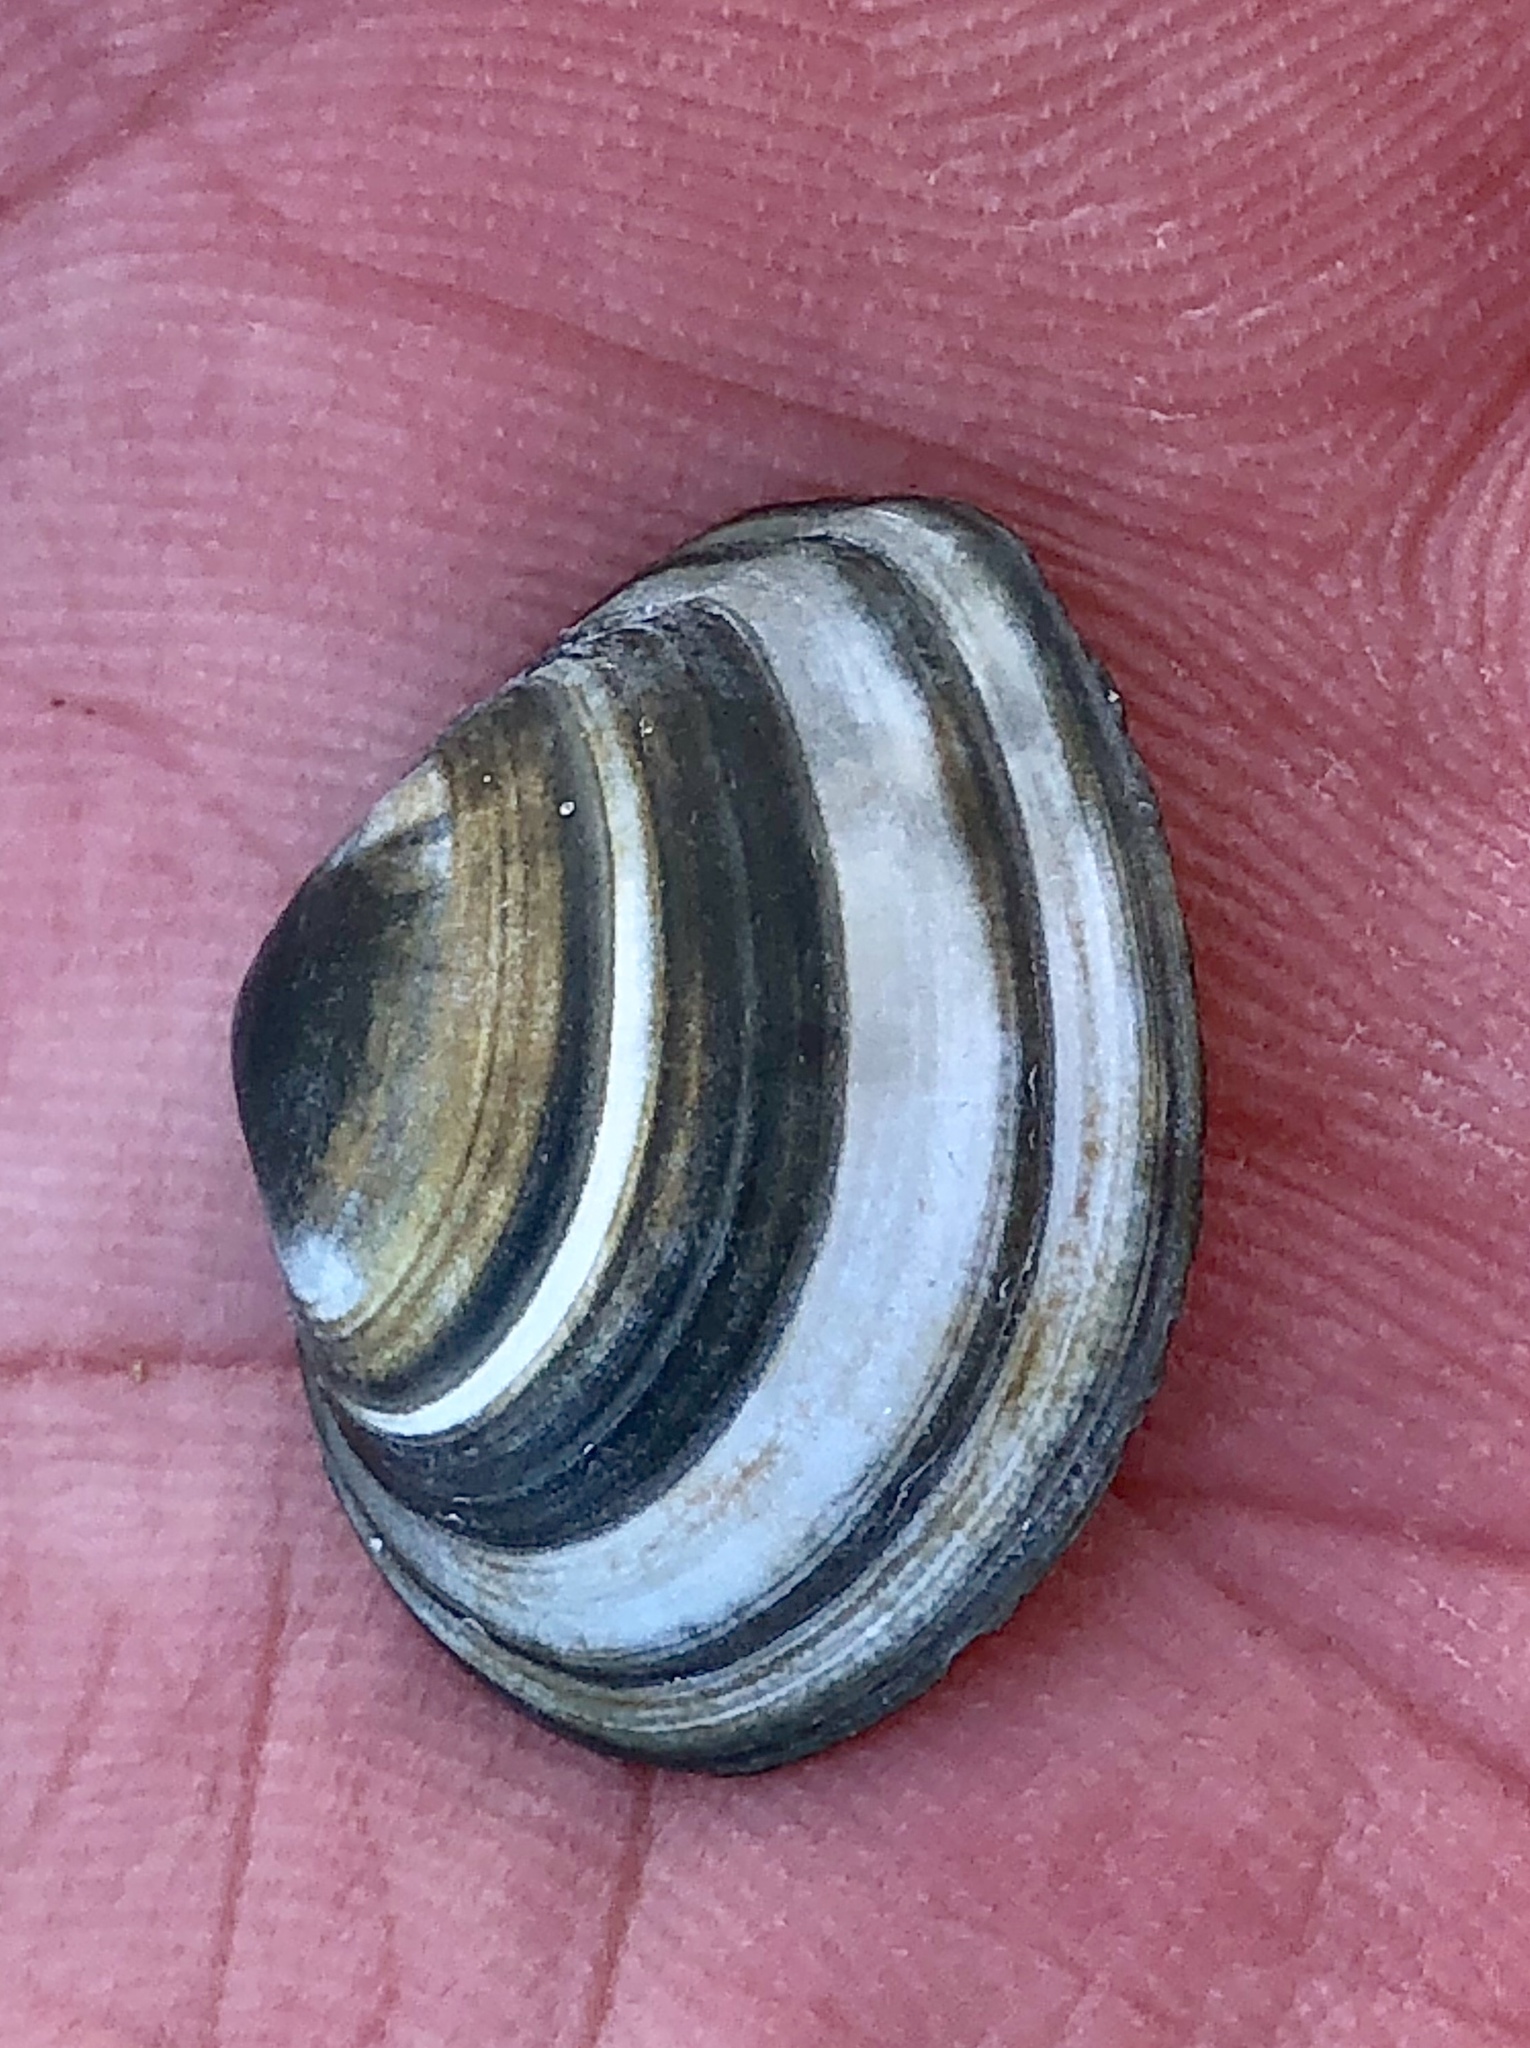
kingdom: Animalia
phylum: Mollusca
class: Bivalvia
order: Venerida
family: Mactridae
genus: Spisula
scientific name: Spisula solida
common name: Thick trough shell
